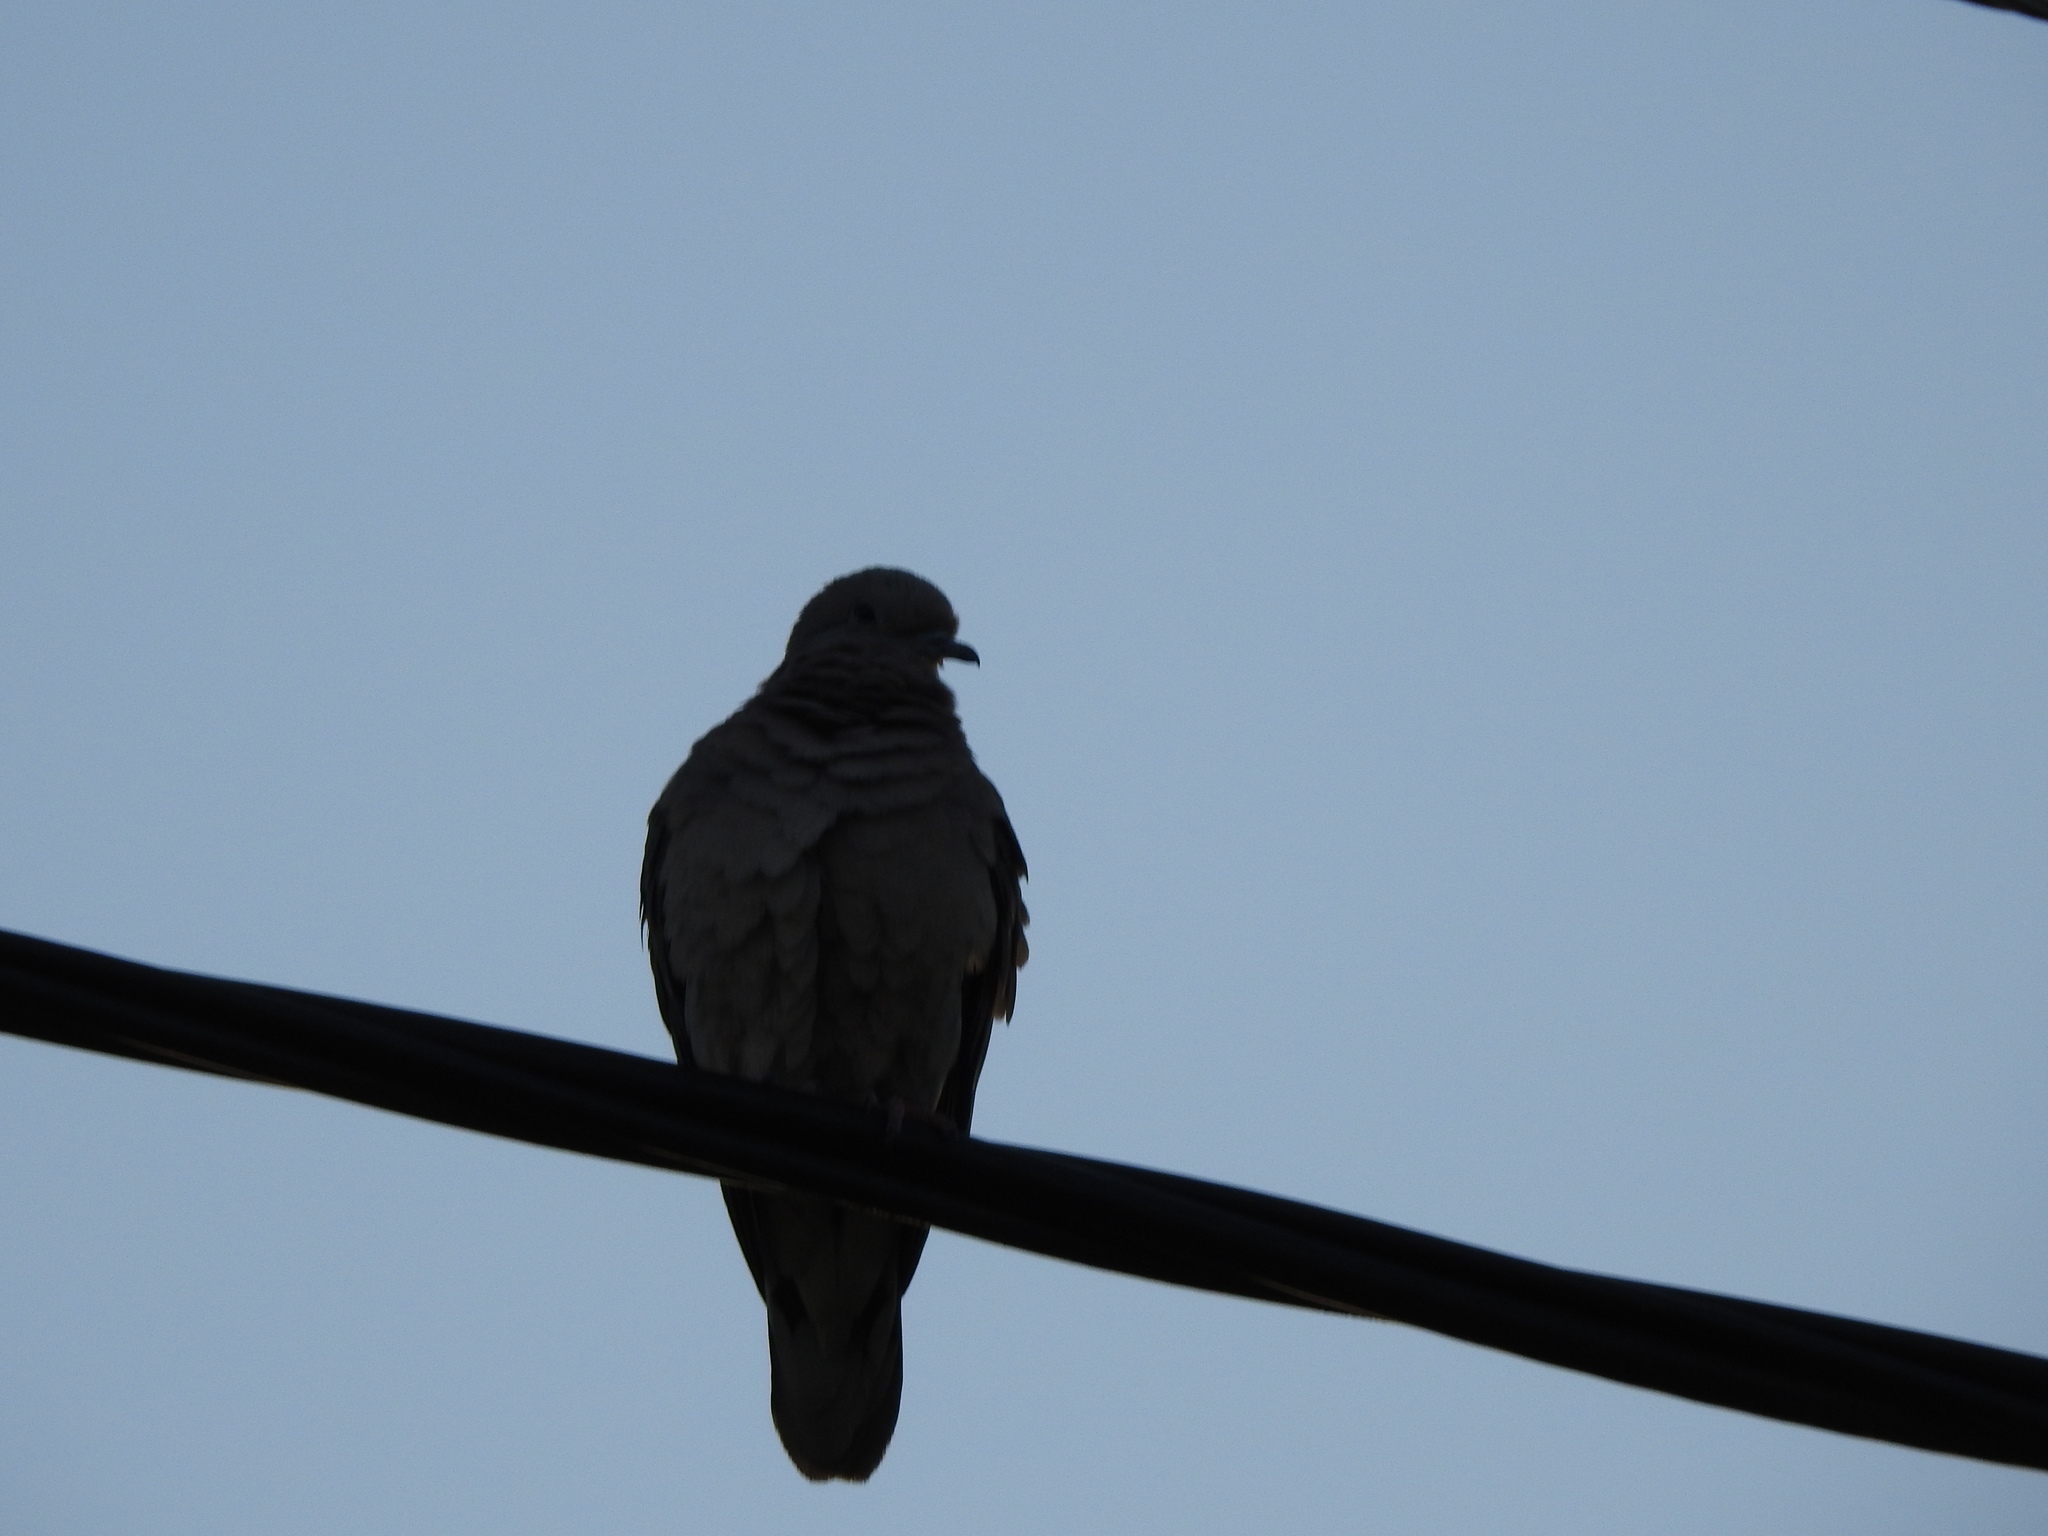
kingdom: Animalia
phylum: Chordata
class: Aves
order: Columbiformes
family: Columbidae
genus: Zenaida
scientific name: Zenaida auriculata
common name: Eared dove
